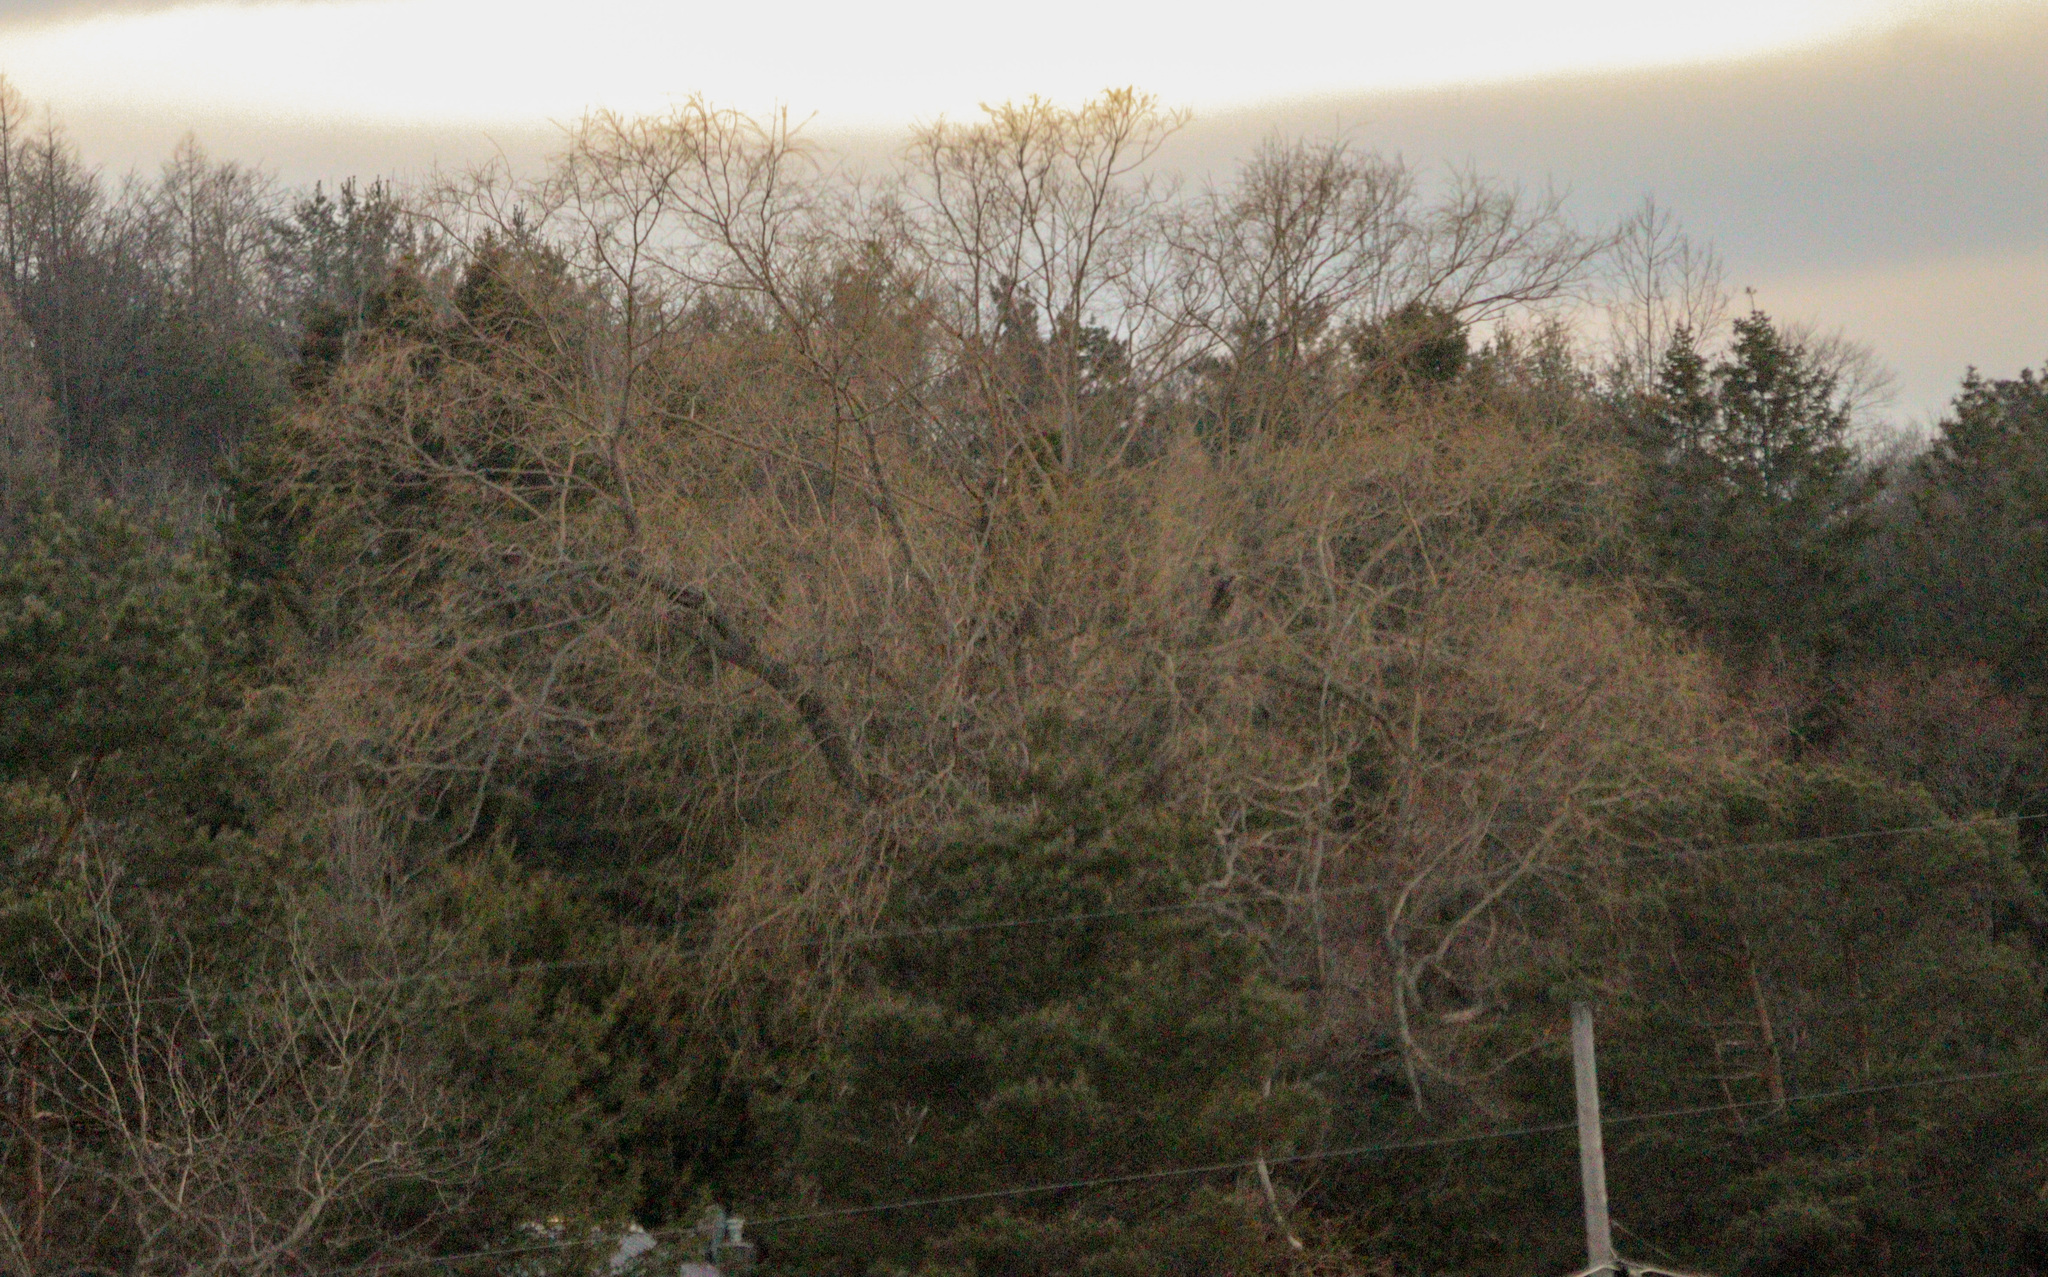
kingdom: Plantae
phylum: Tracheophyta
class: Magnoliopsida
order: Malpighiales
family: Salicaceae
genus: Salix
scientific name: Salix pendulina
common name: Wisconsin weeping willow
